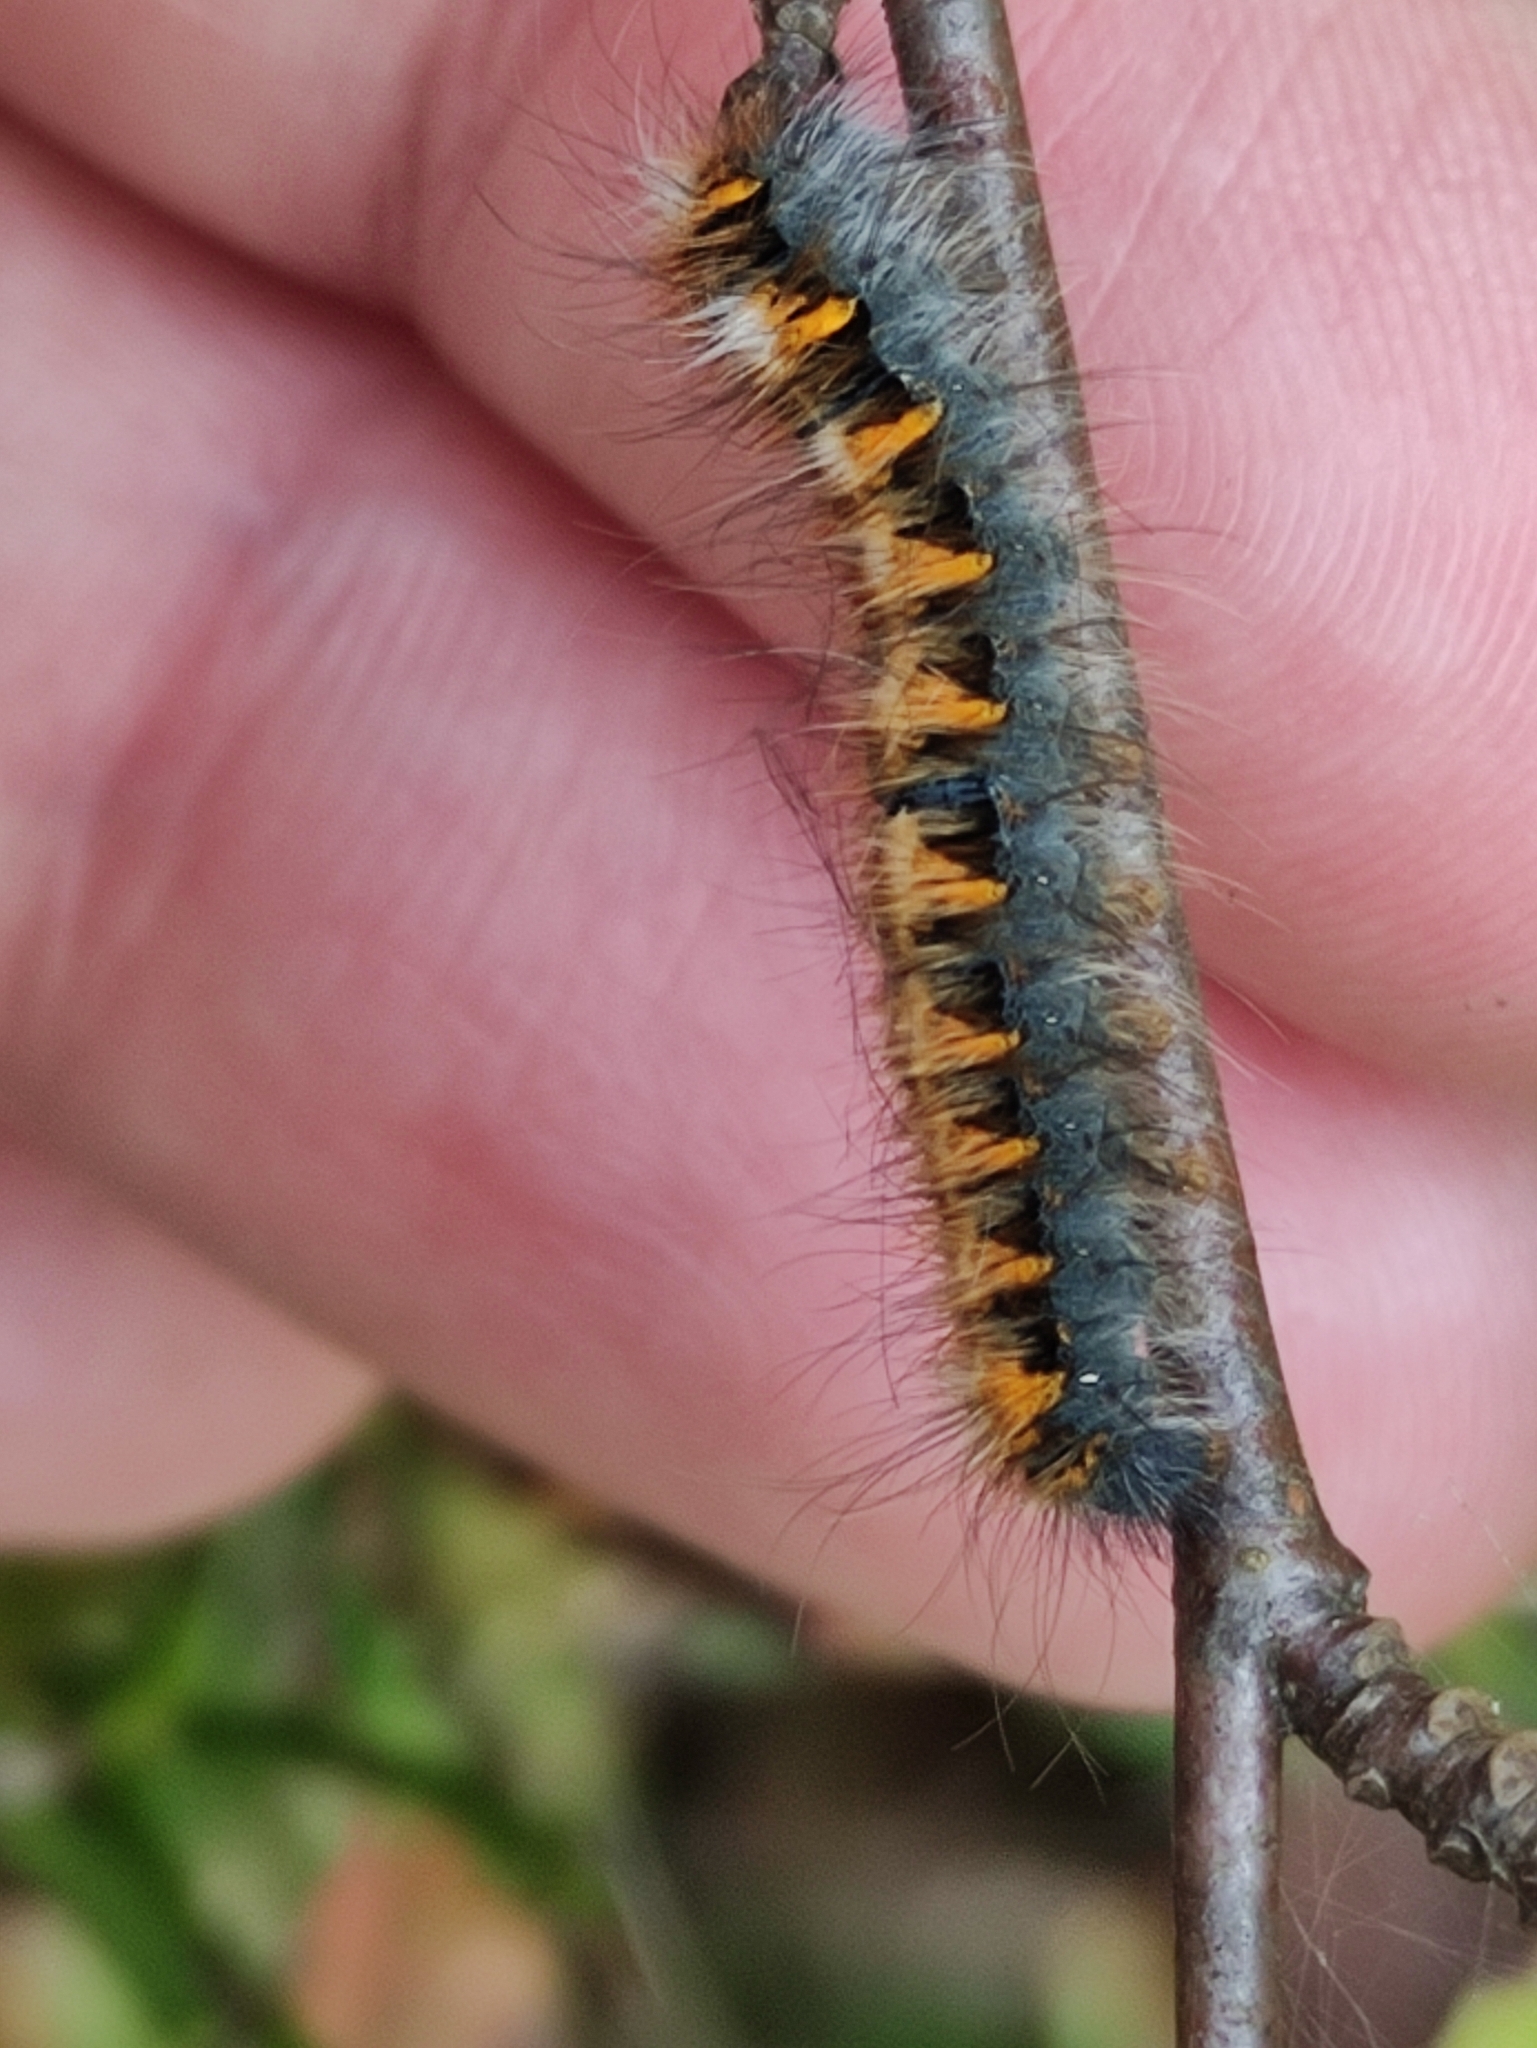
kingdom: Animalia
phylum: Arthropoda
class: Insecta
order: Lepidoptera
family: Lasiocampidae
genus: Lasiocampa
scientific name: Lasiocampa quercus
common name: Oak eggar
